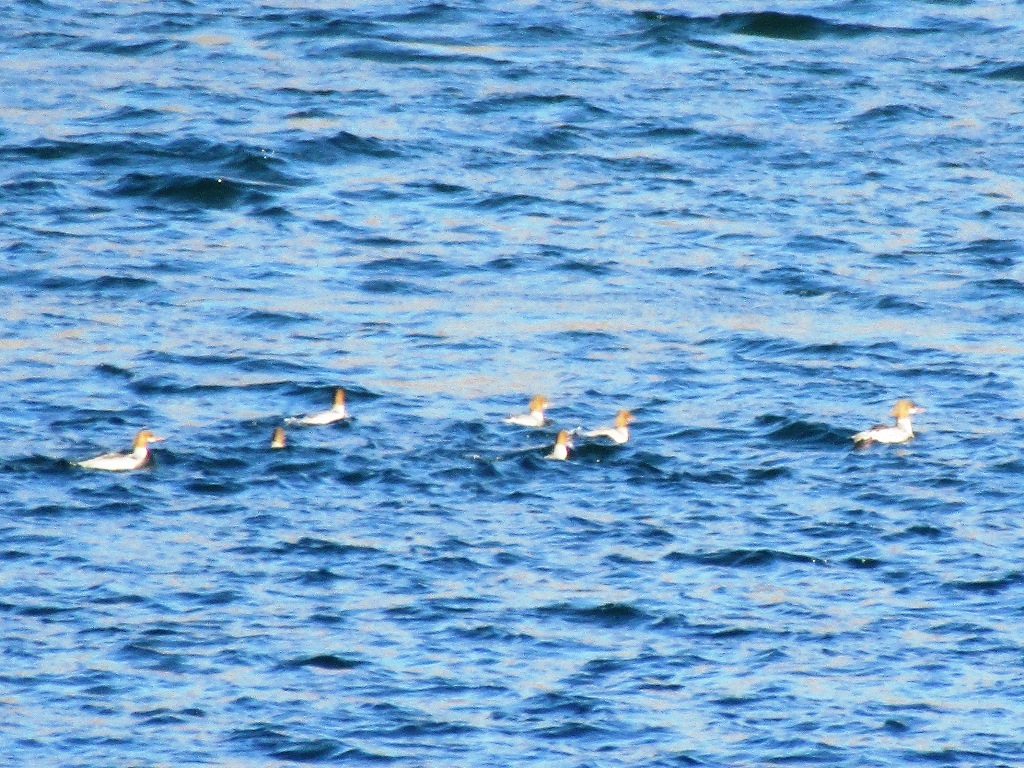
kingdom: Animalia
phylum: Chordata
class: Aves
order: Anseriformes
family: Anatidae
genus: Mergus
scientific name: Mergus merganser
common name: Common merganser
